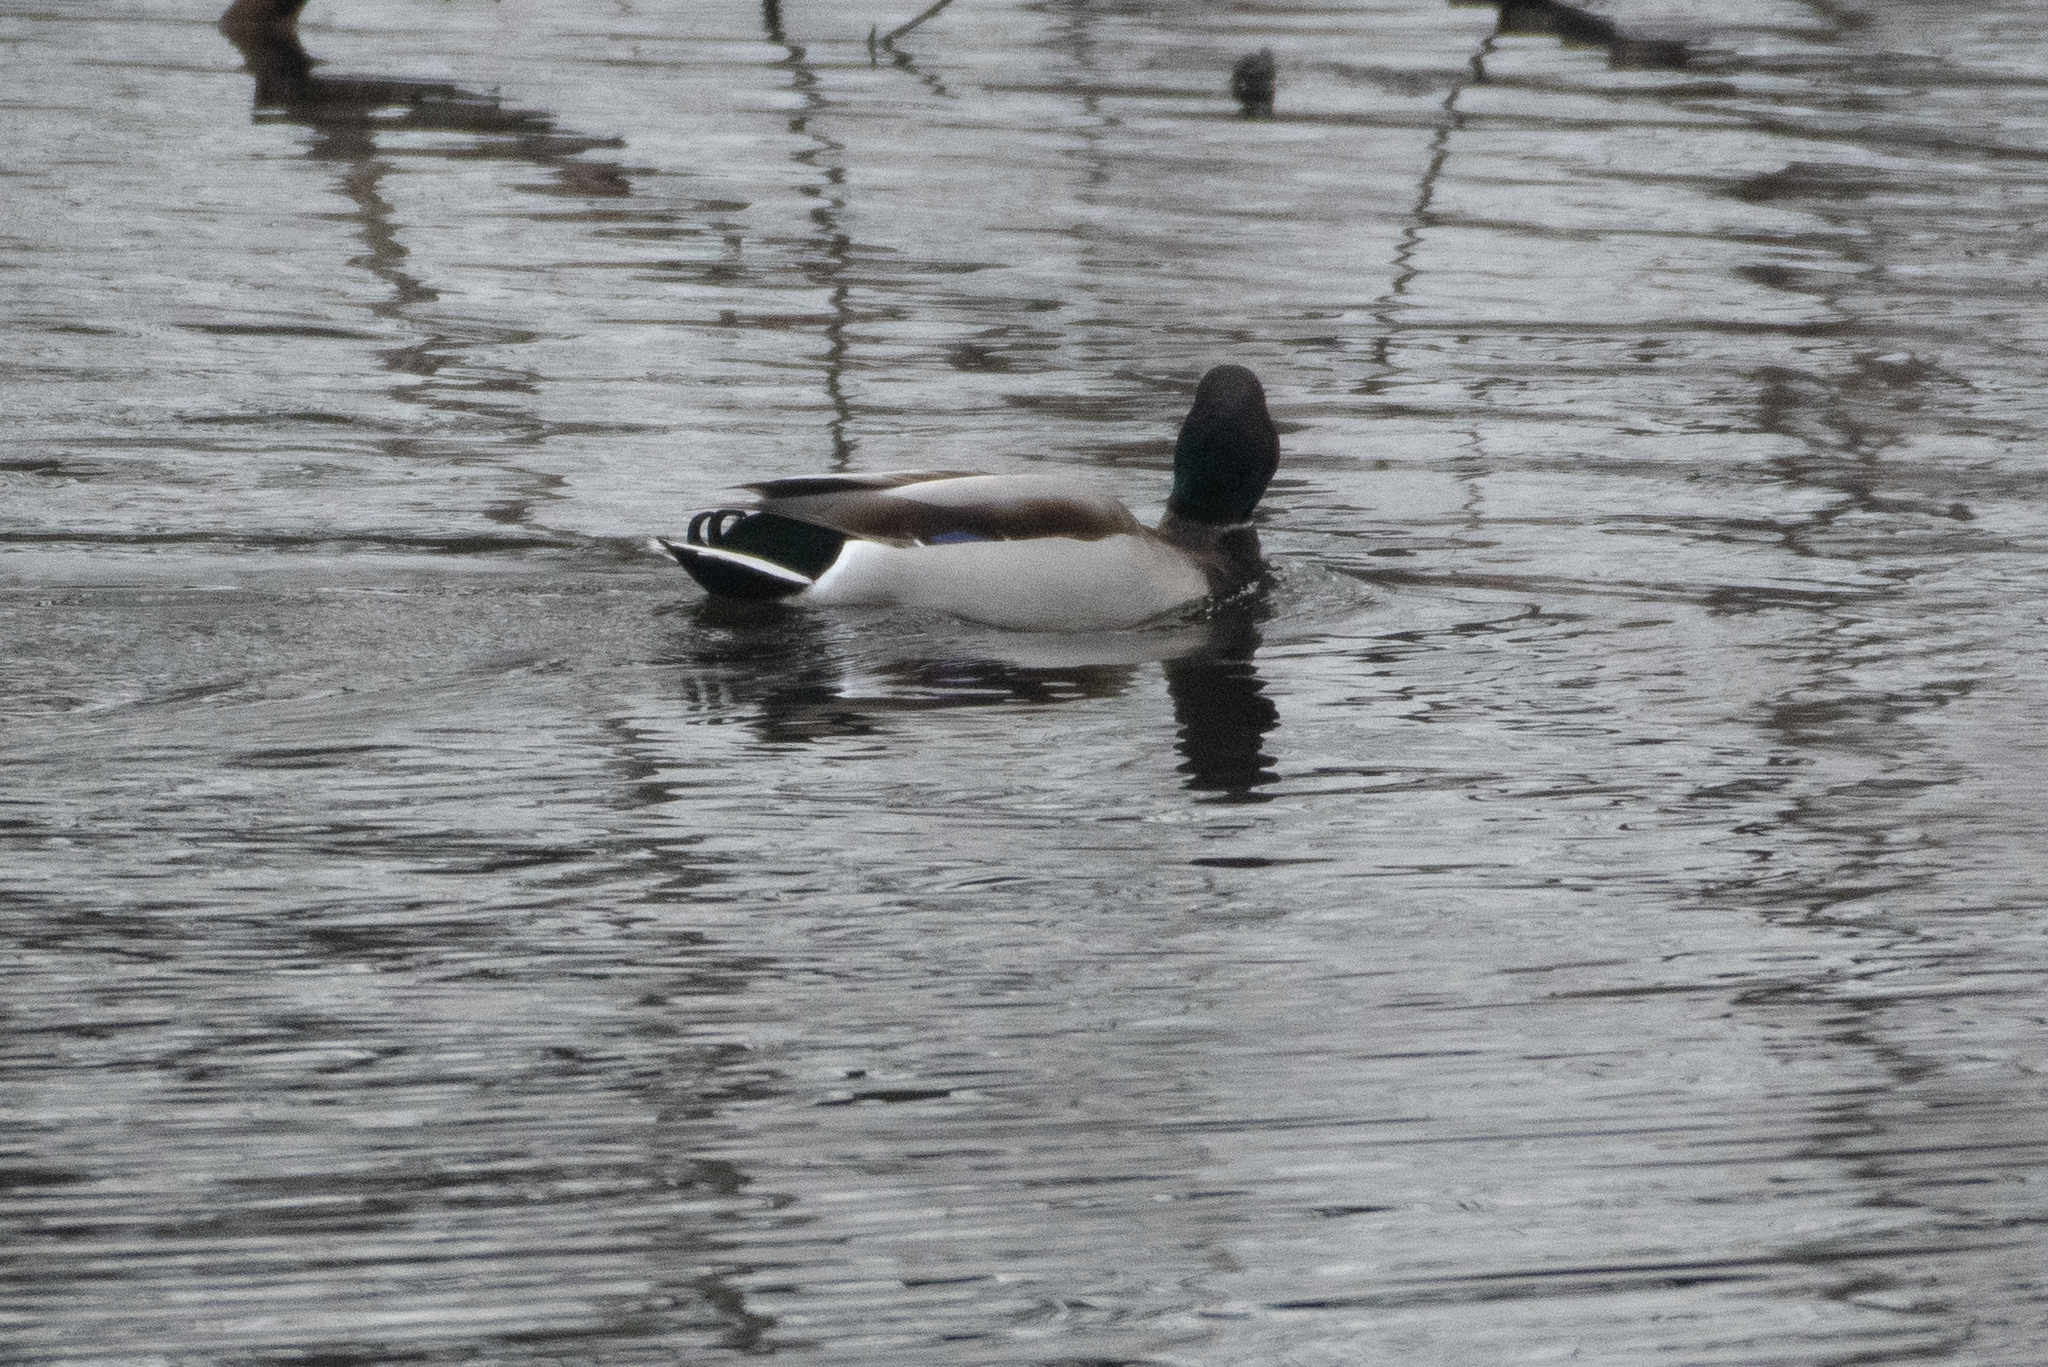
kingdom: Animalia
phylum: Chordata
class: Aves
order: Anseriformes
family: Anatidae
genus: Anas
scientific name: Anas platyrhynchos
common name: Mallard
